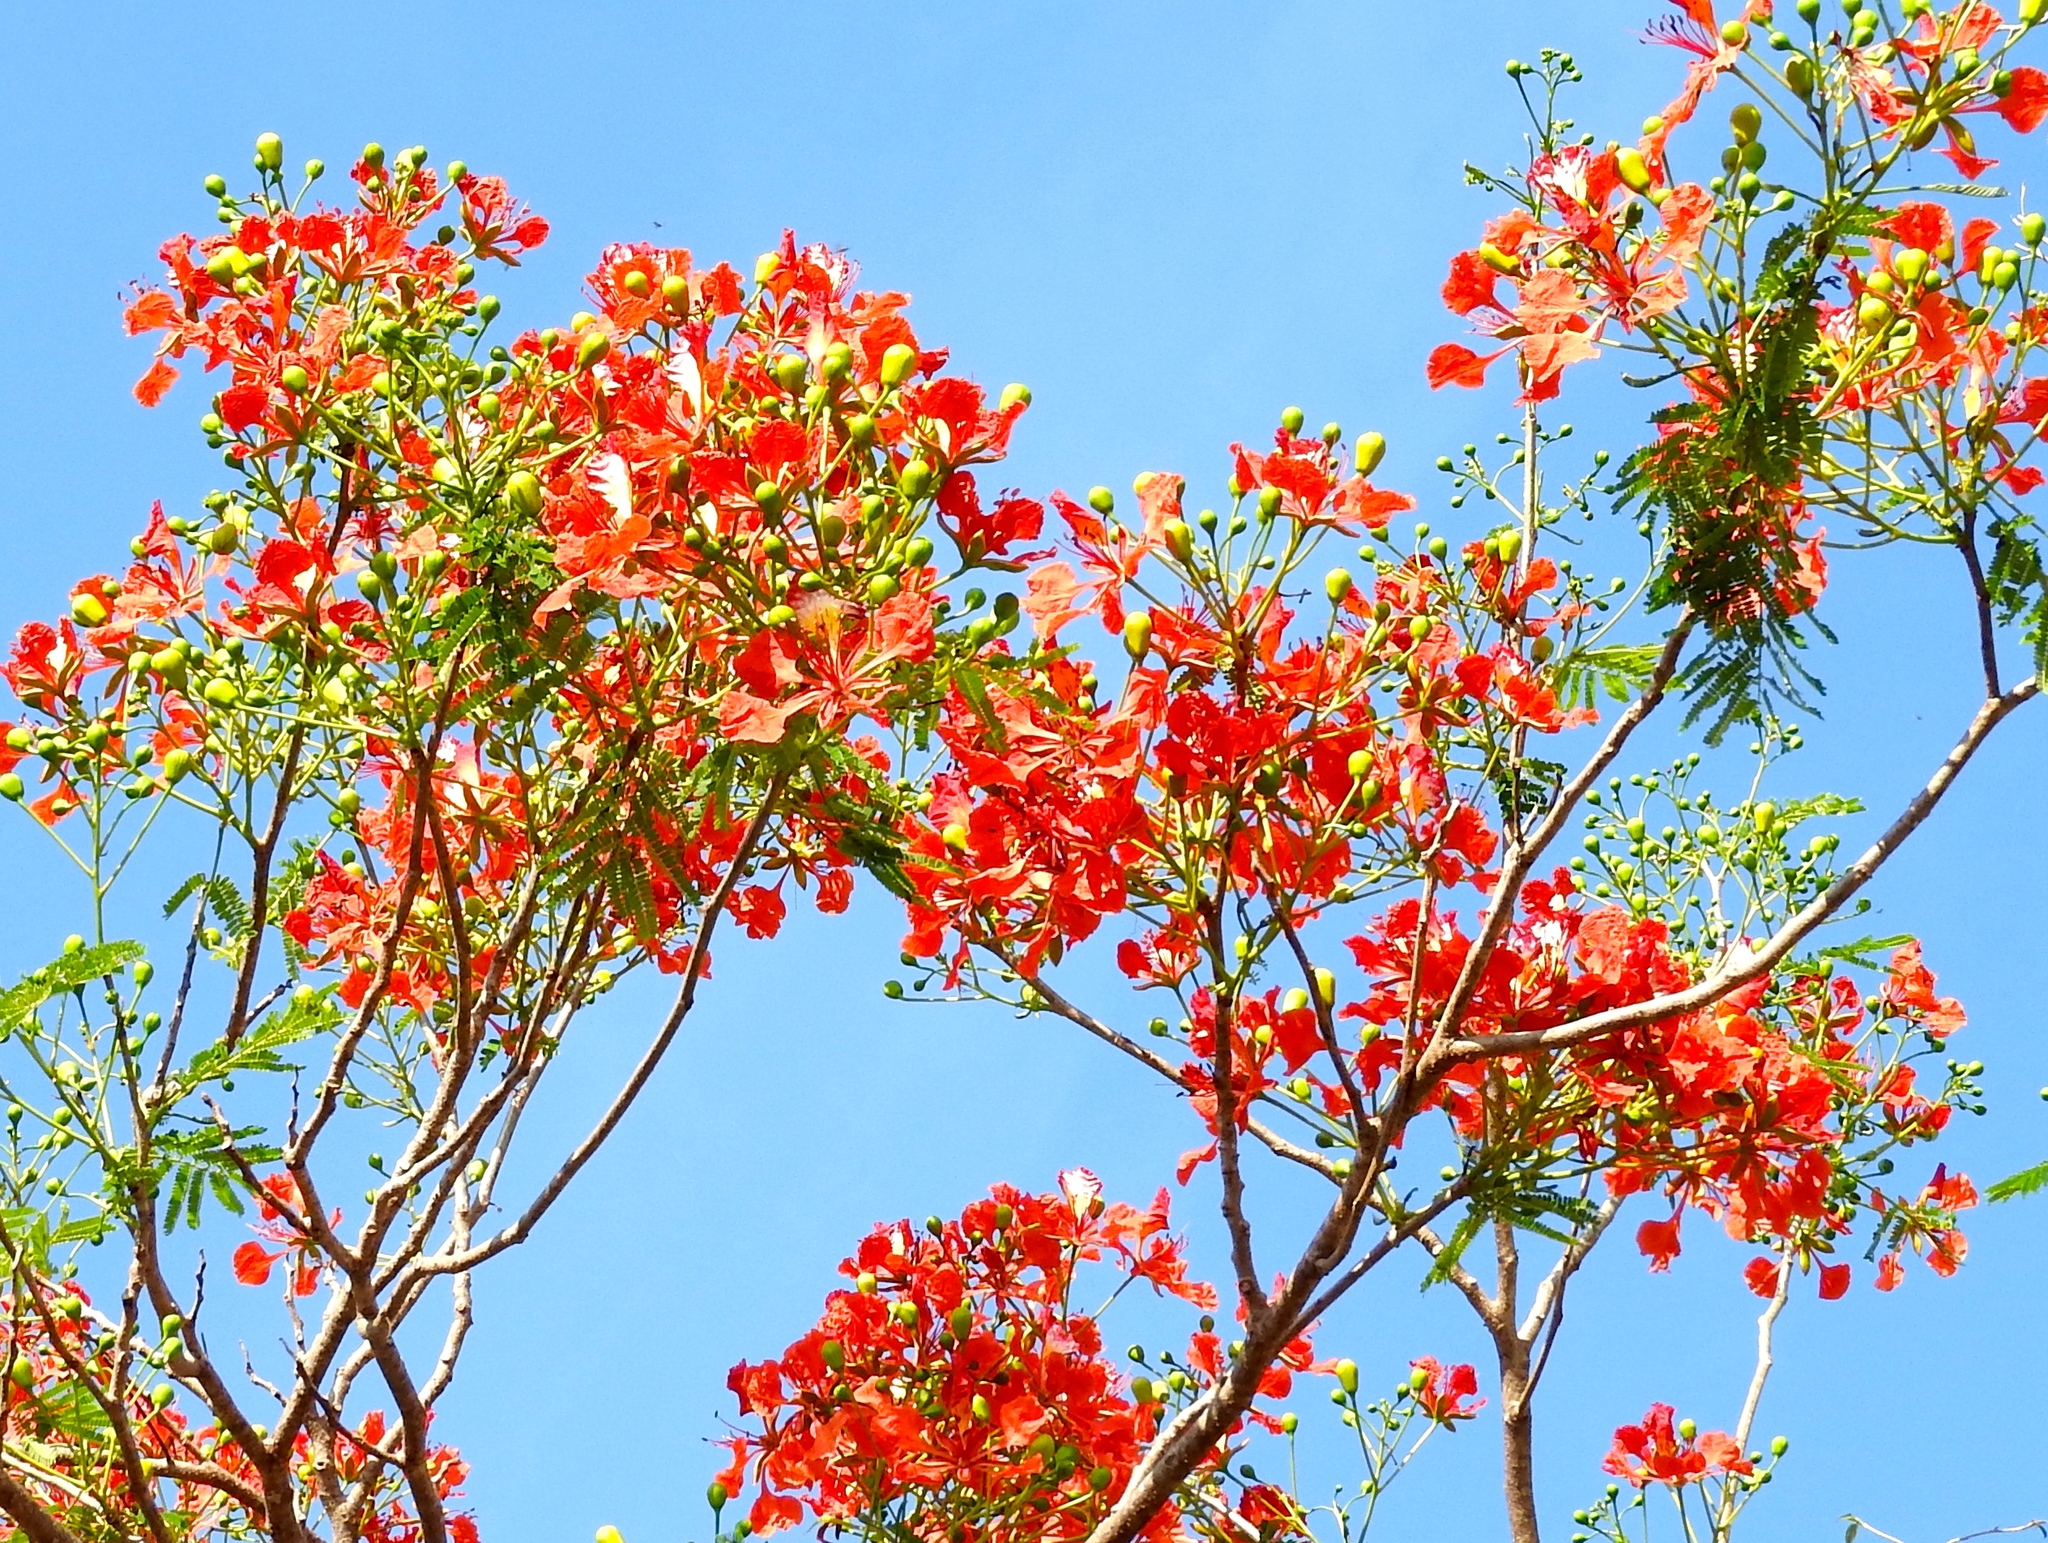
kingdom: Plantae
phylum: Tracheophyta
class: Magnoliopsida
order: Fabales
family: Fabaceae
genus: Delonix
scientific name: Delonix regia
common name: Royal poinciana
